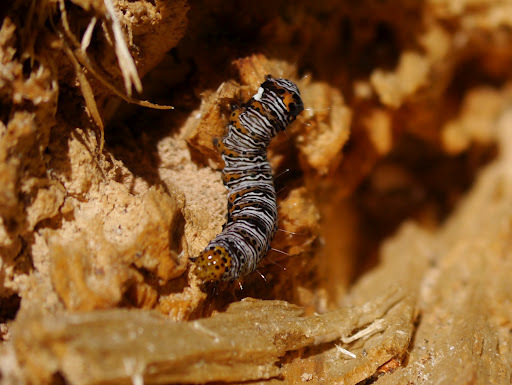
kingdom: Animalia
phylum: Arthropoda
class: Insecta
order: Lepidoptera
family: Noctuidae
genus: Alypia
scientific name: Alypia octomaculata
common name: Eight-spotted forester
